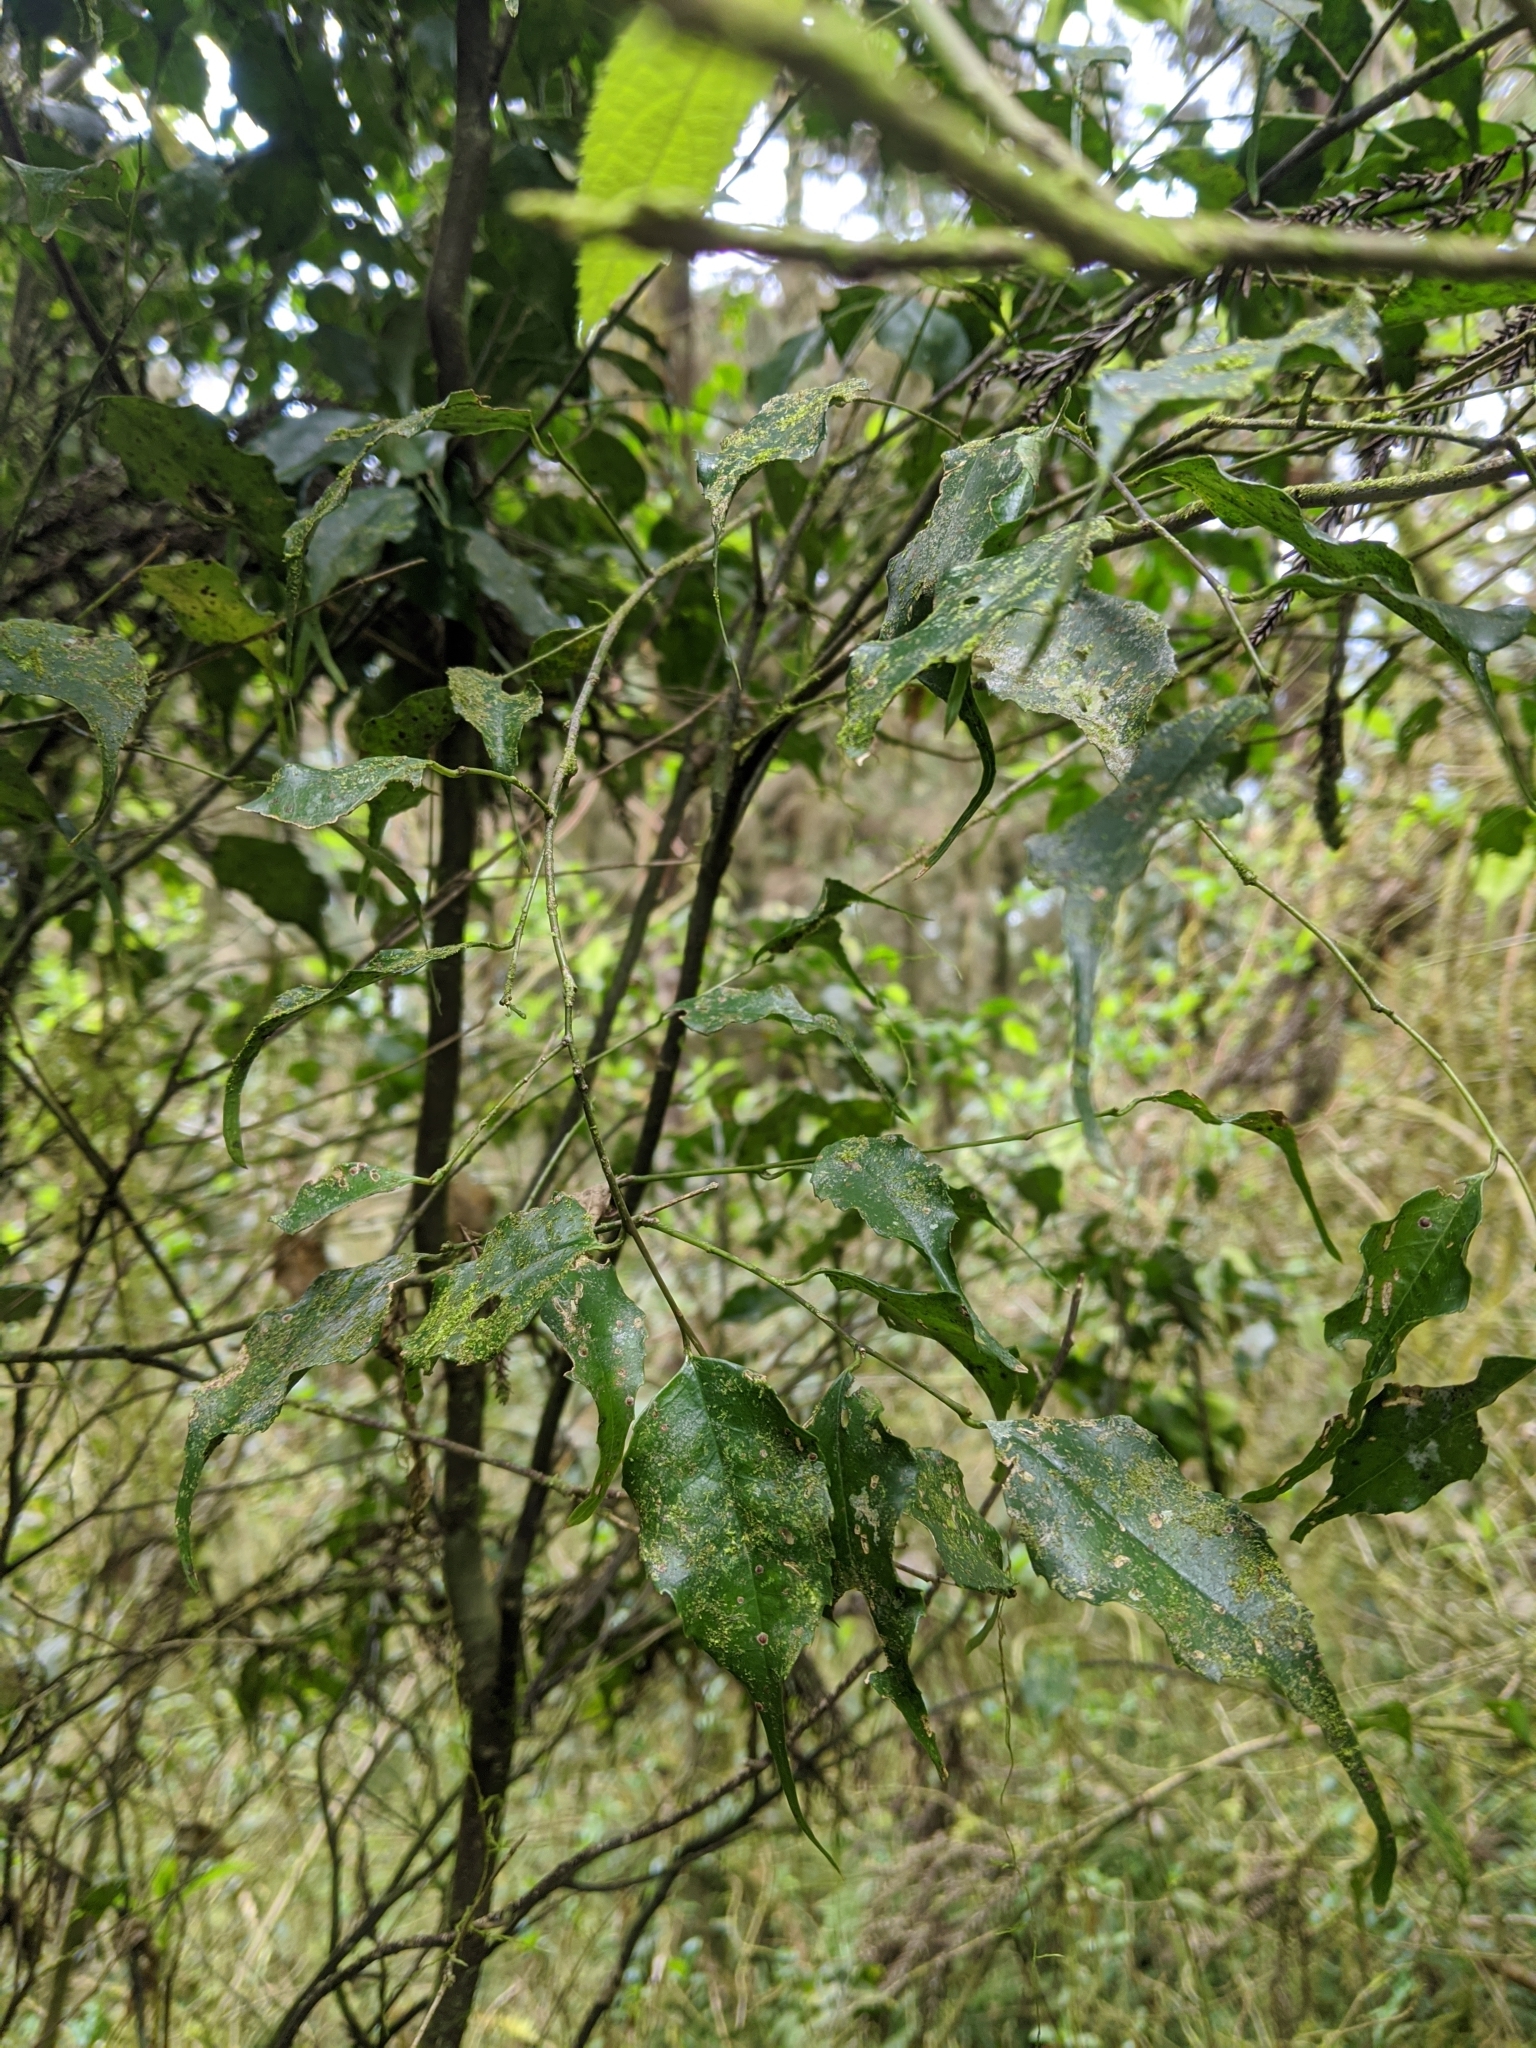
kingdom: Plantae
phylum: Tracheophyta
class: Magnoliopsida
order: Ericales
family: Symplocaceae
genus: Symplocos
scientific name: Symplocos sumuntia
